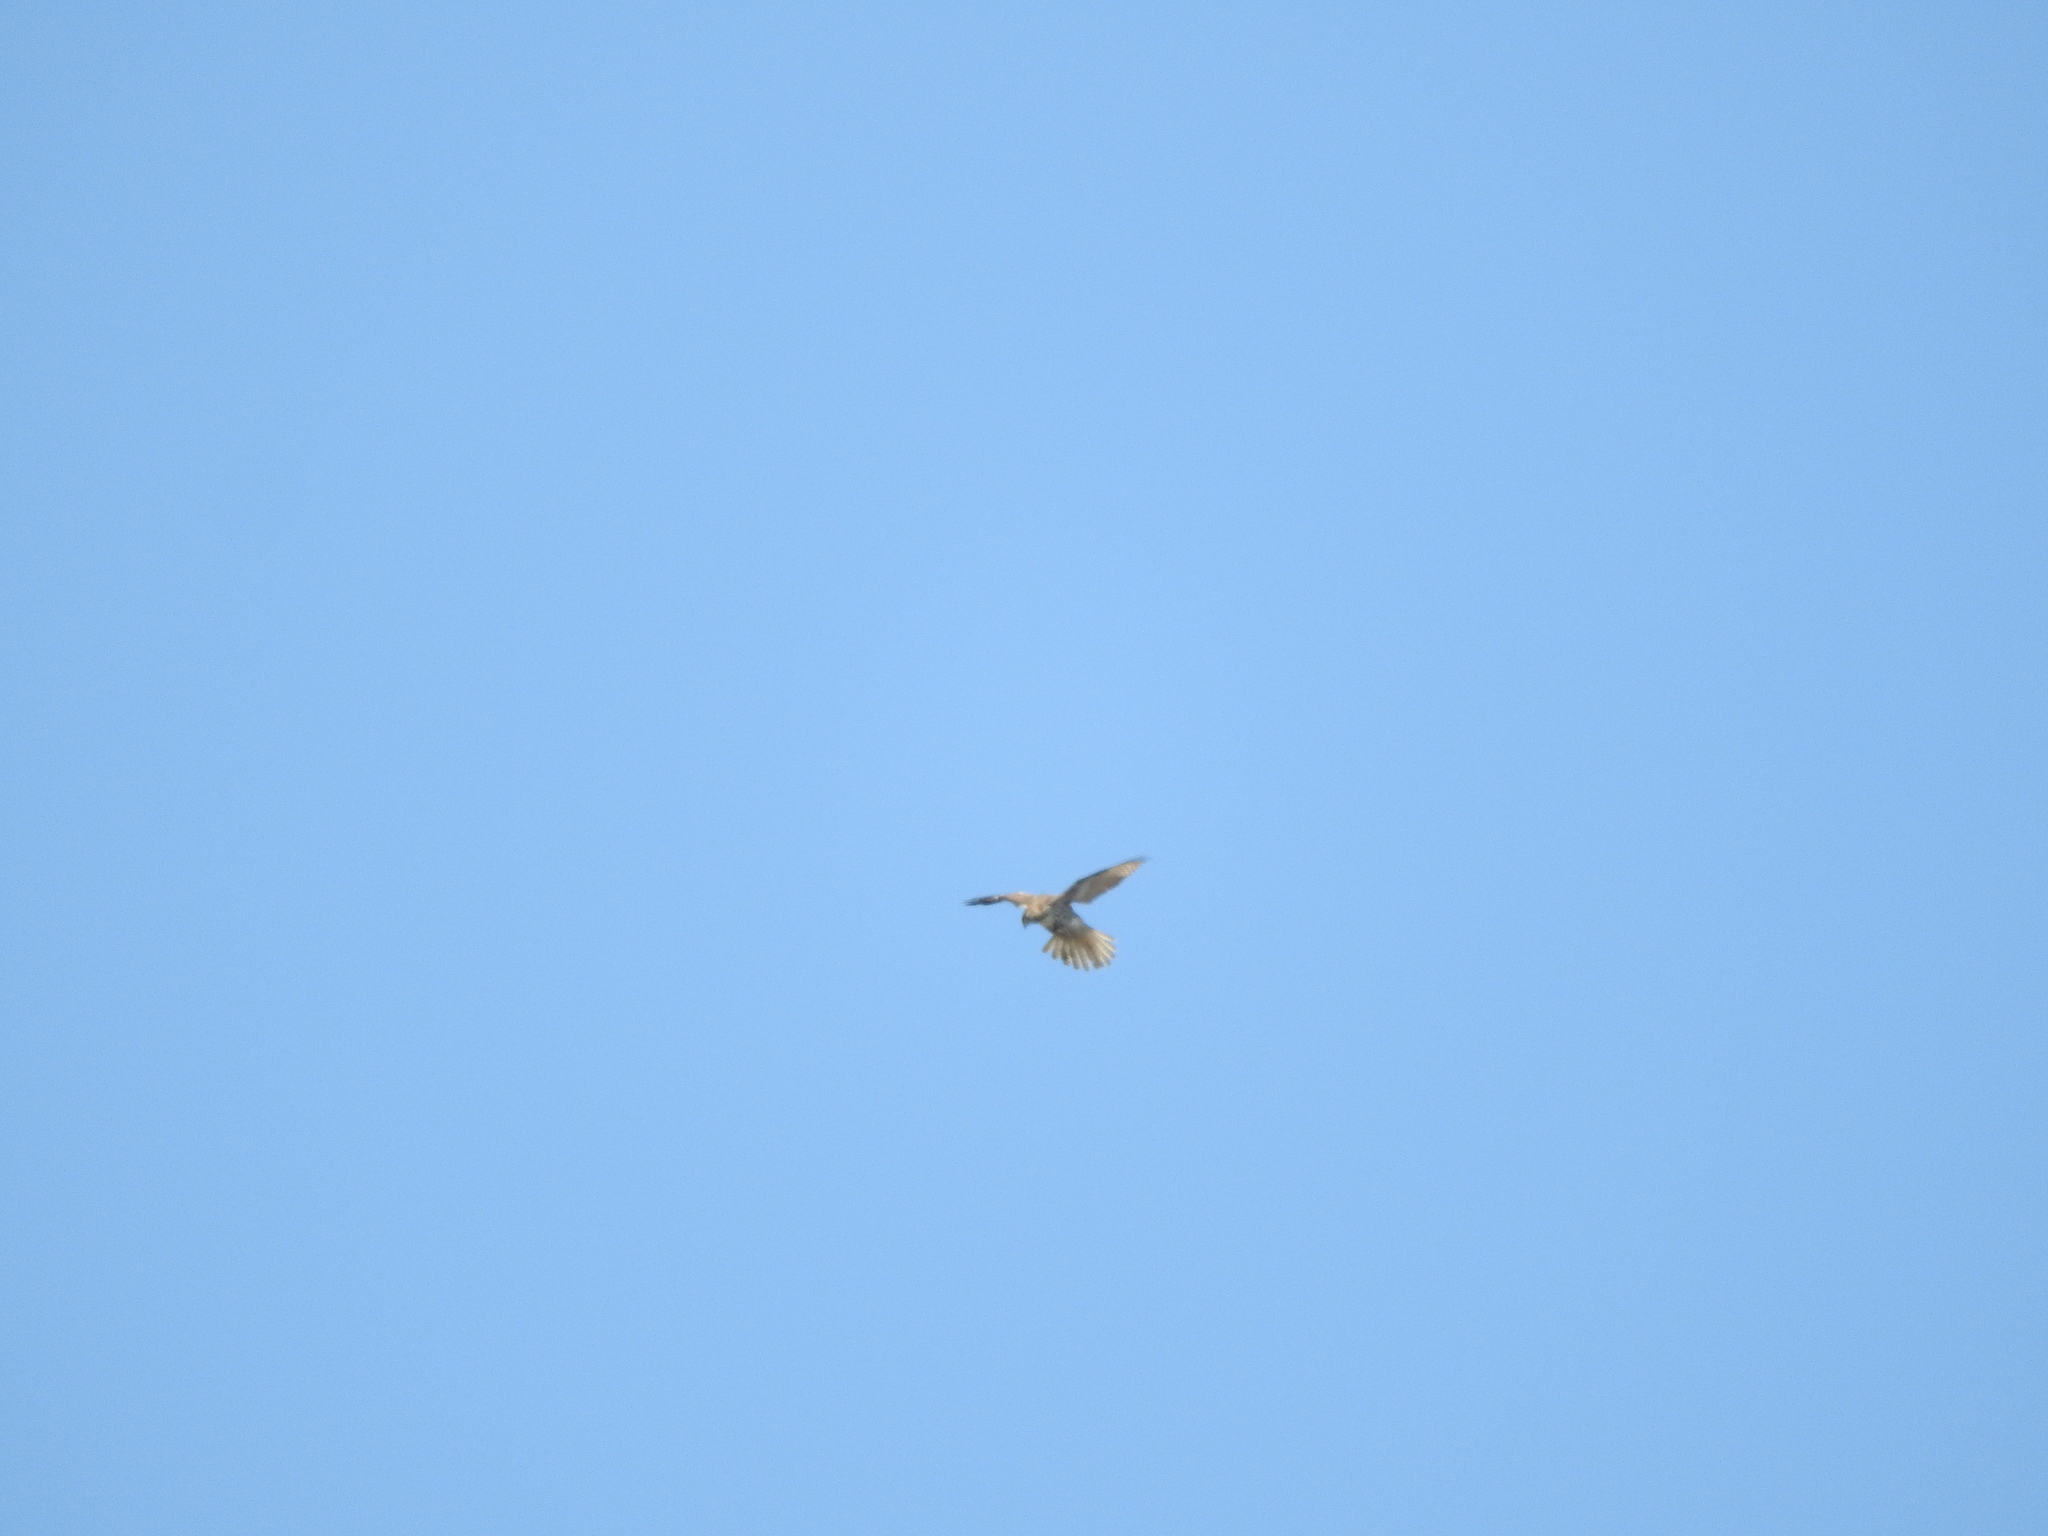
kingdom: Animalia
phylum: Chordata
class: Aves
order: Accipitriformes
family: Accipitridae
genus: Buteo
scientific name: Buteo jamaicensis
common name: Red-tailed hawk
